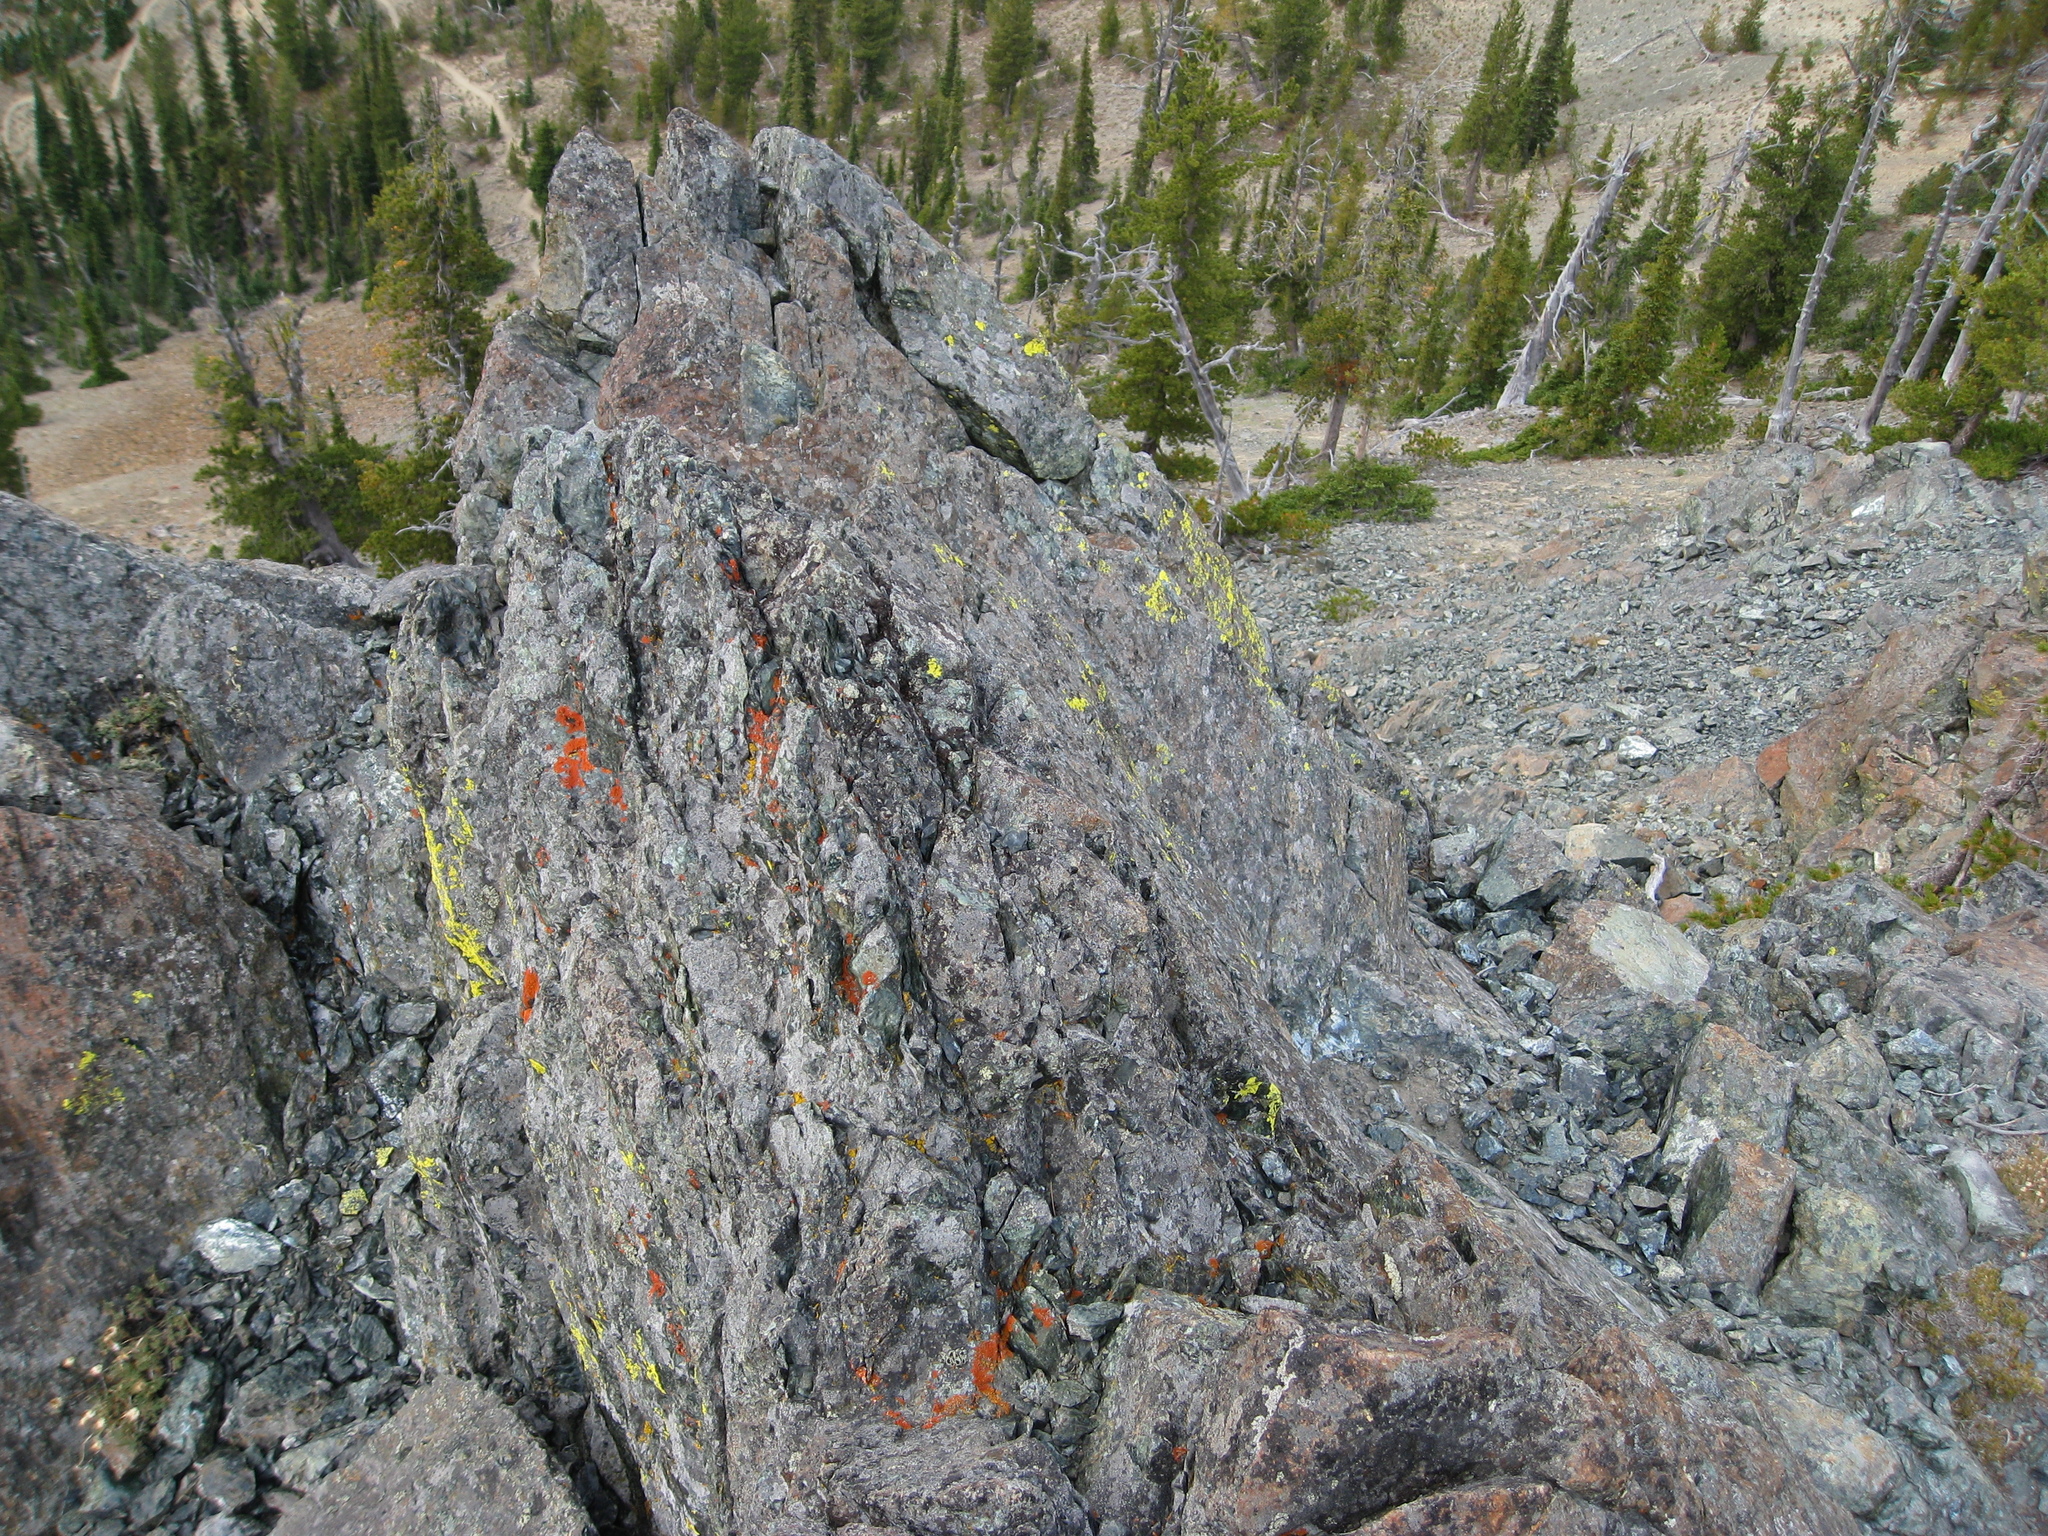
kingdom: Fungi
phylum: Ascomycota
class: Lecanoromycetes
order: Teloschistales
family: Teloschistaceae
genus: Xanthoria
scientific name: Xanthoria elegans
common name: Elegant sunburst lichen
